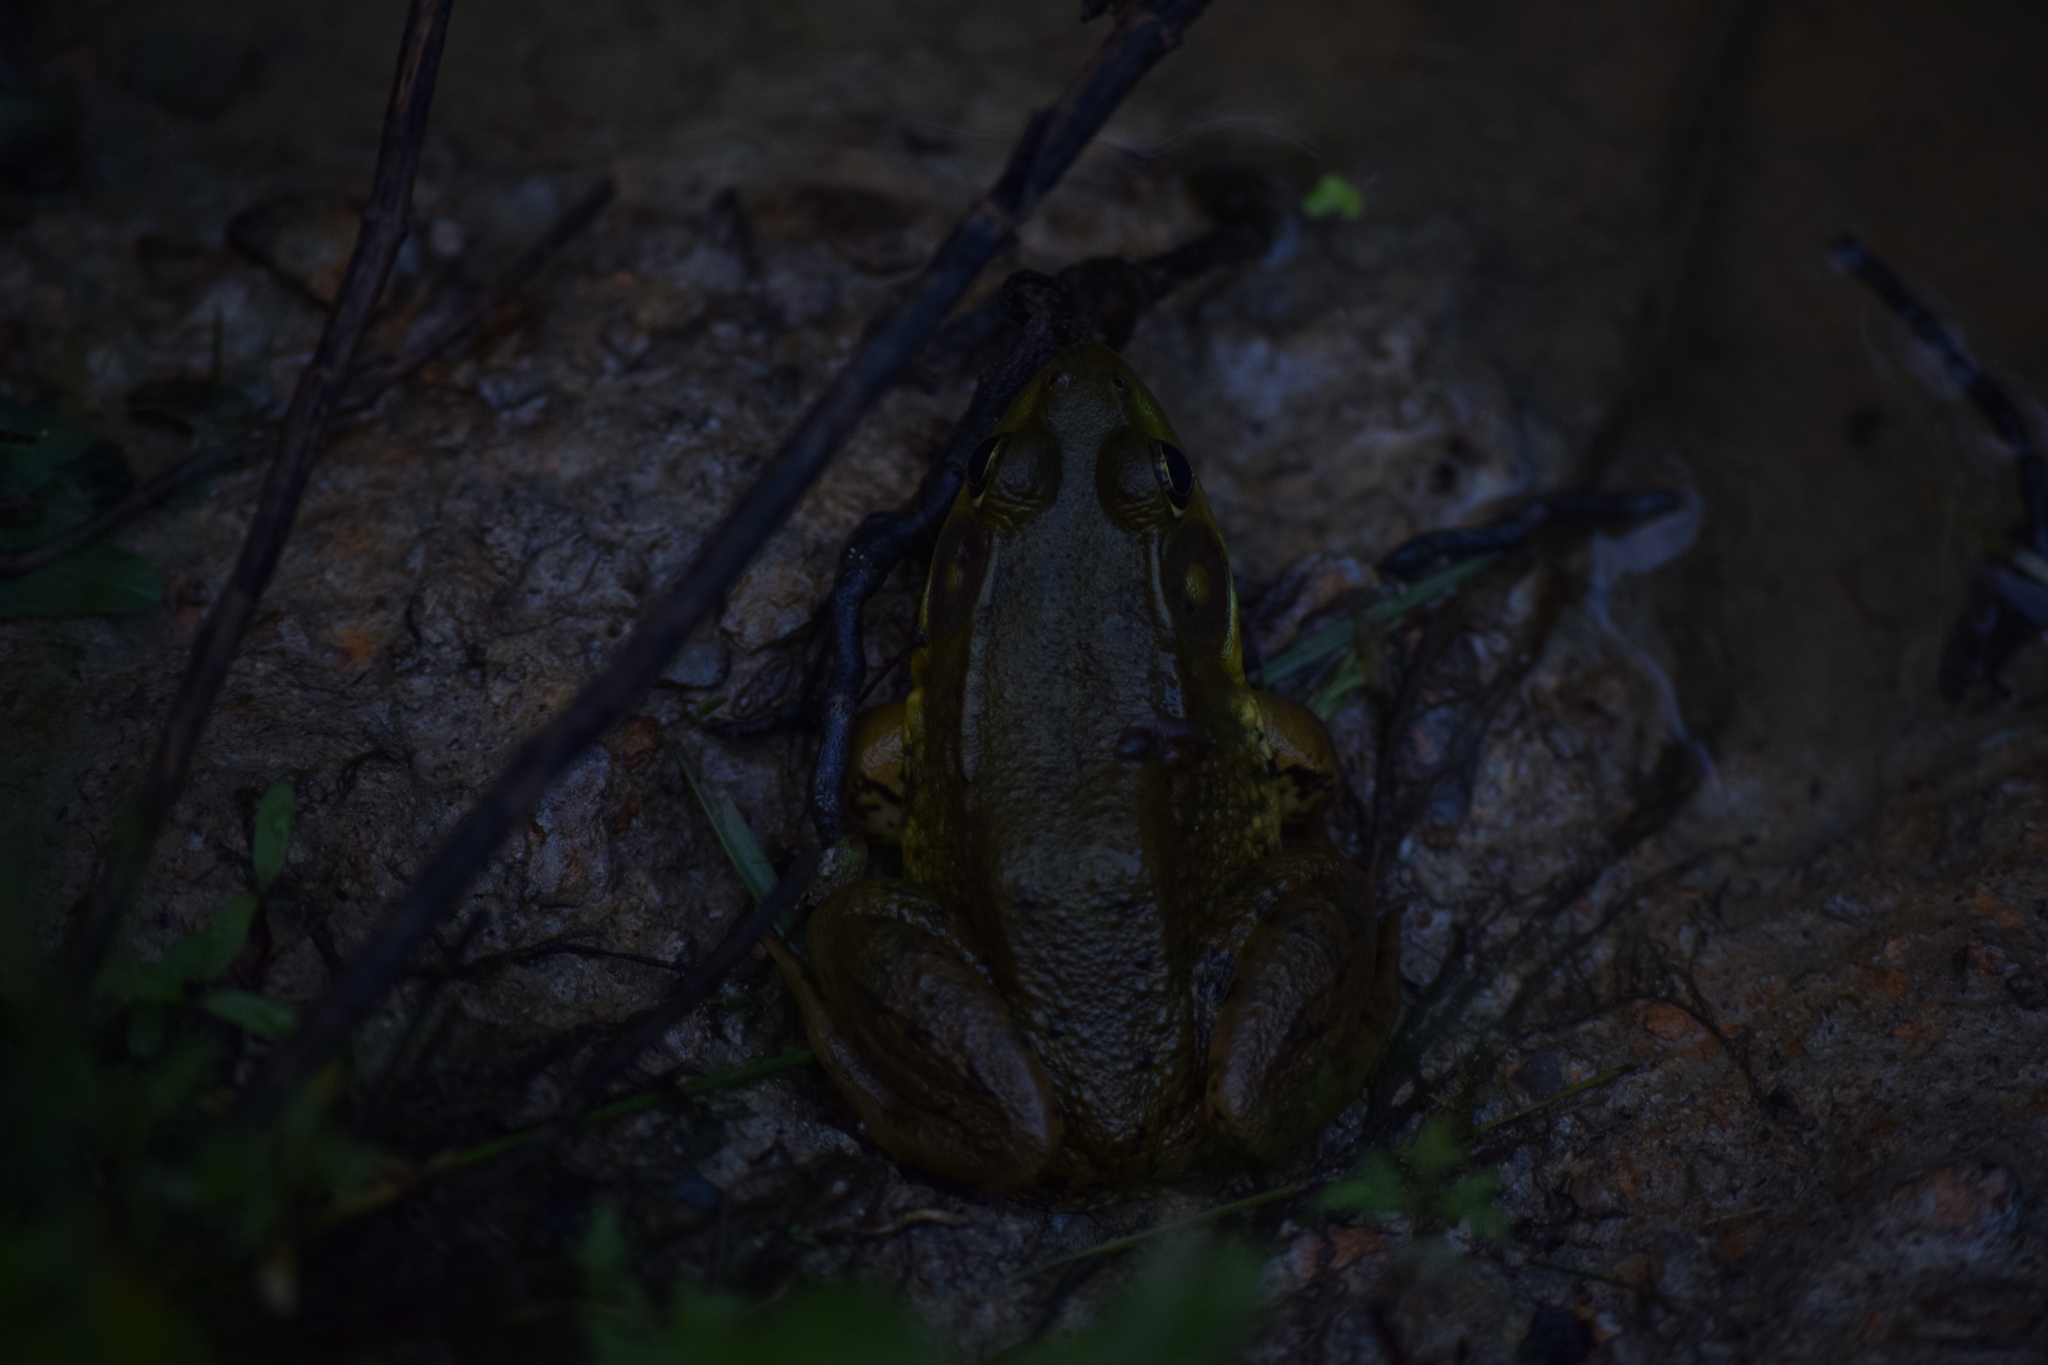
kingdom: Animalia
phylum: Chordata
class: Amphibia
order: Anura
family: Ranidae
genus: Lithobates
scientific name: Lithobates clamitans
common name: Green frog
